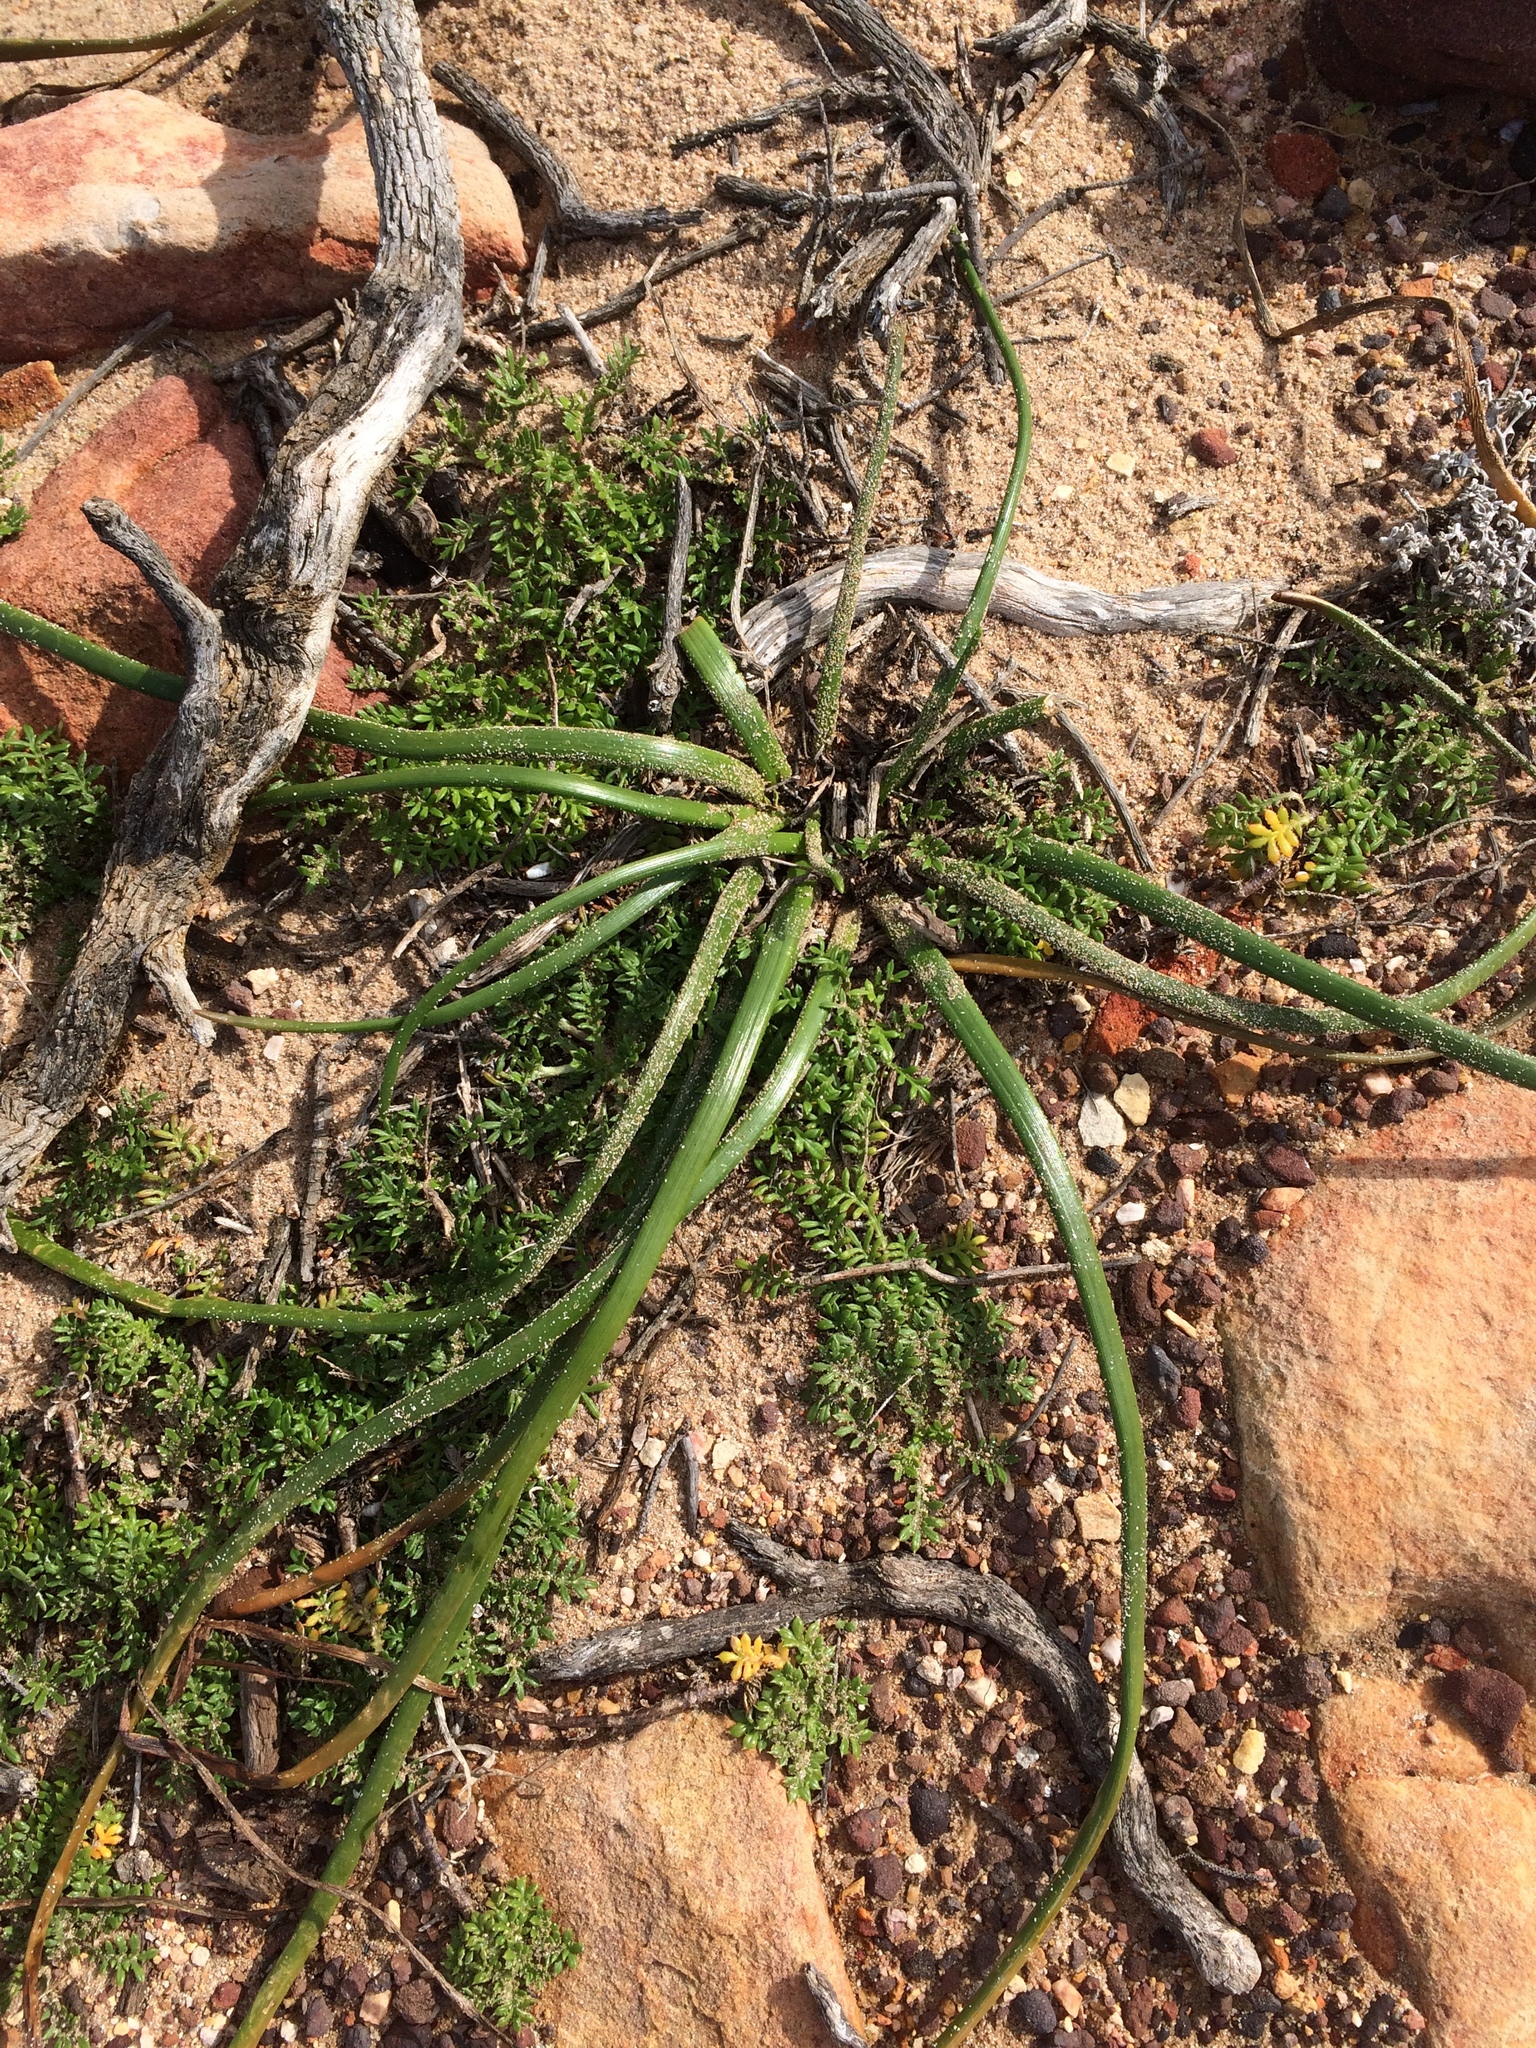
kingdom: Plantae
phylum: Tracheophyta
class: Liliopsida
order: Asparagales
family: Asphodelaceae
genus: Trachyandra
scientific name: Trachyandra divaricata
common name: Dune onionweed
